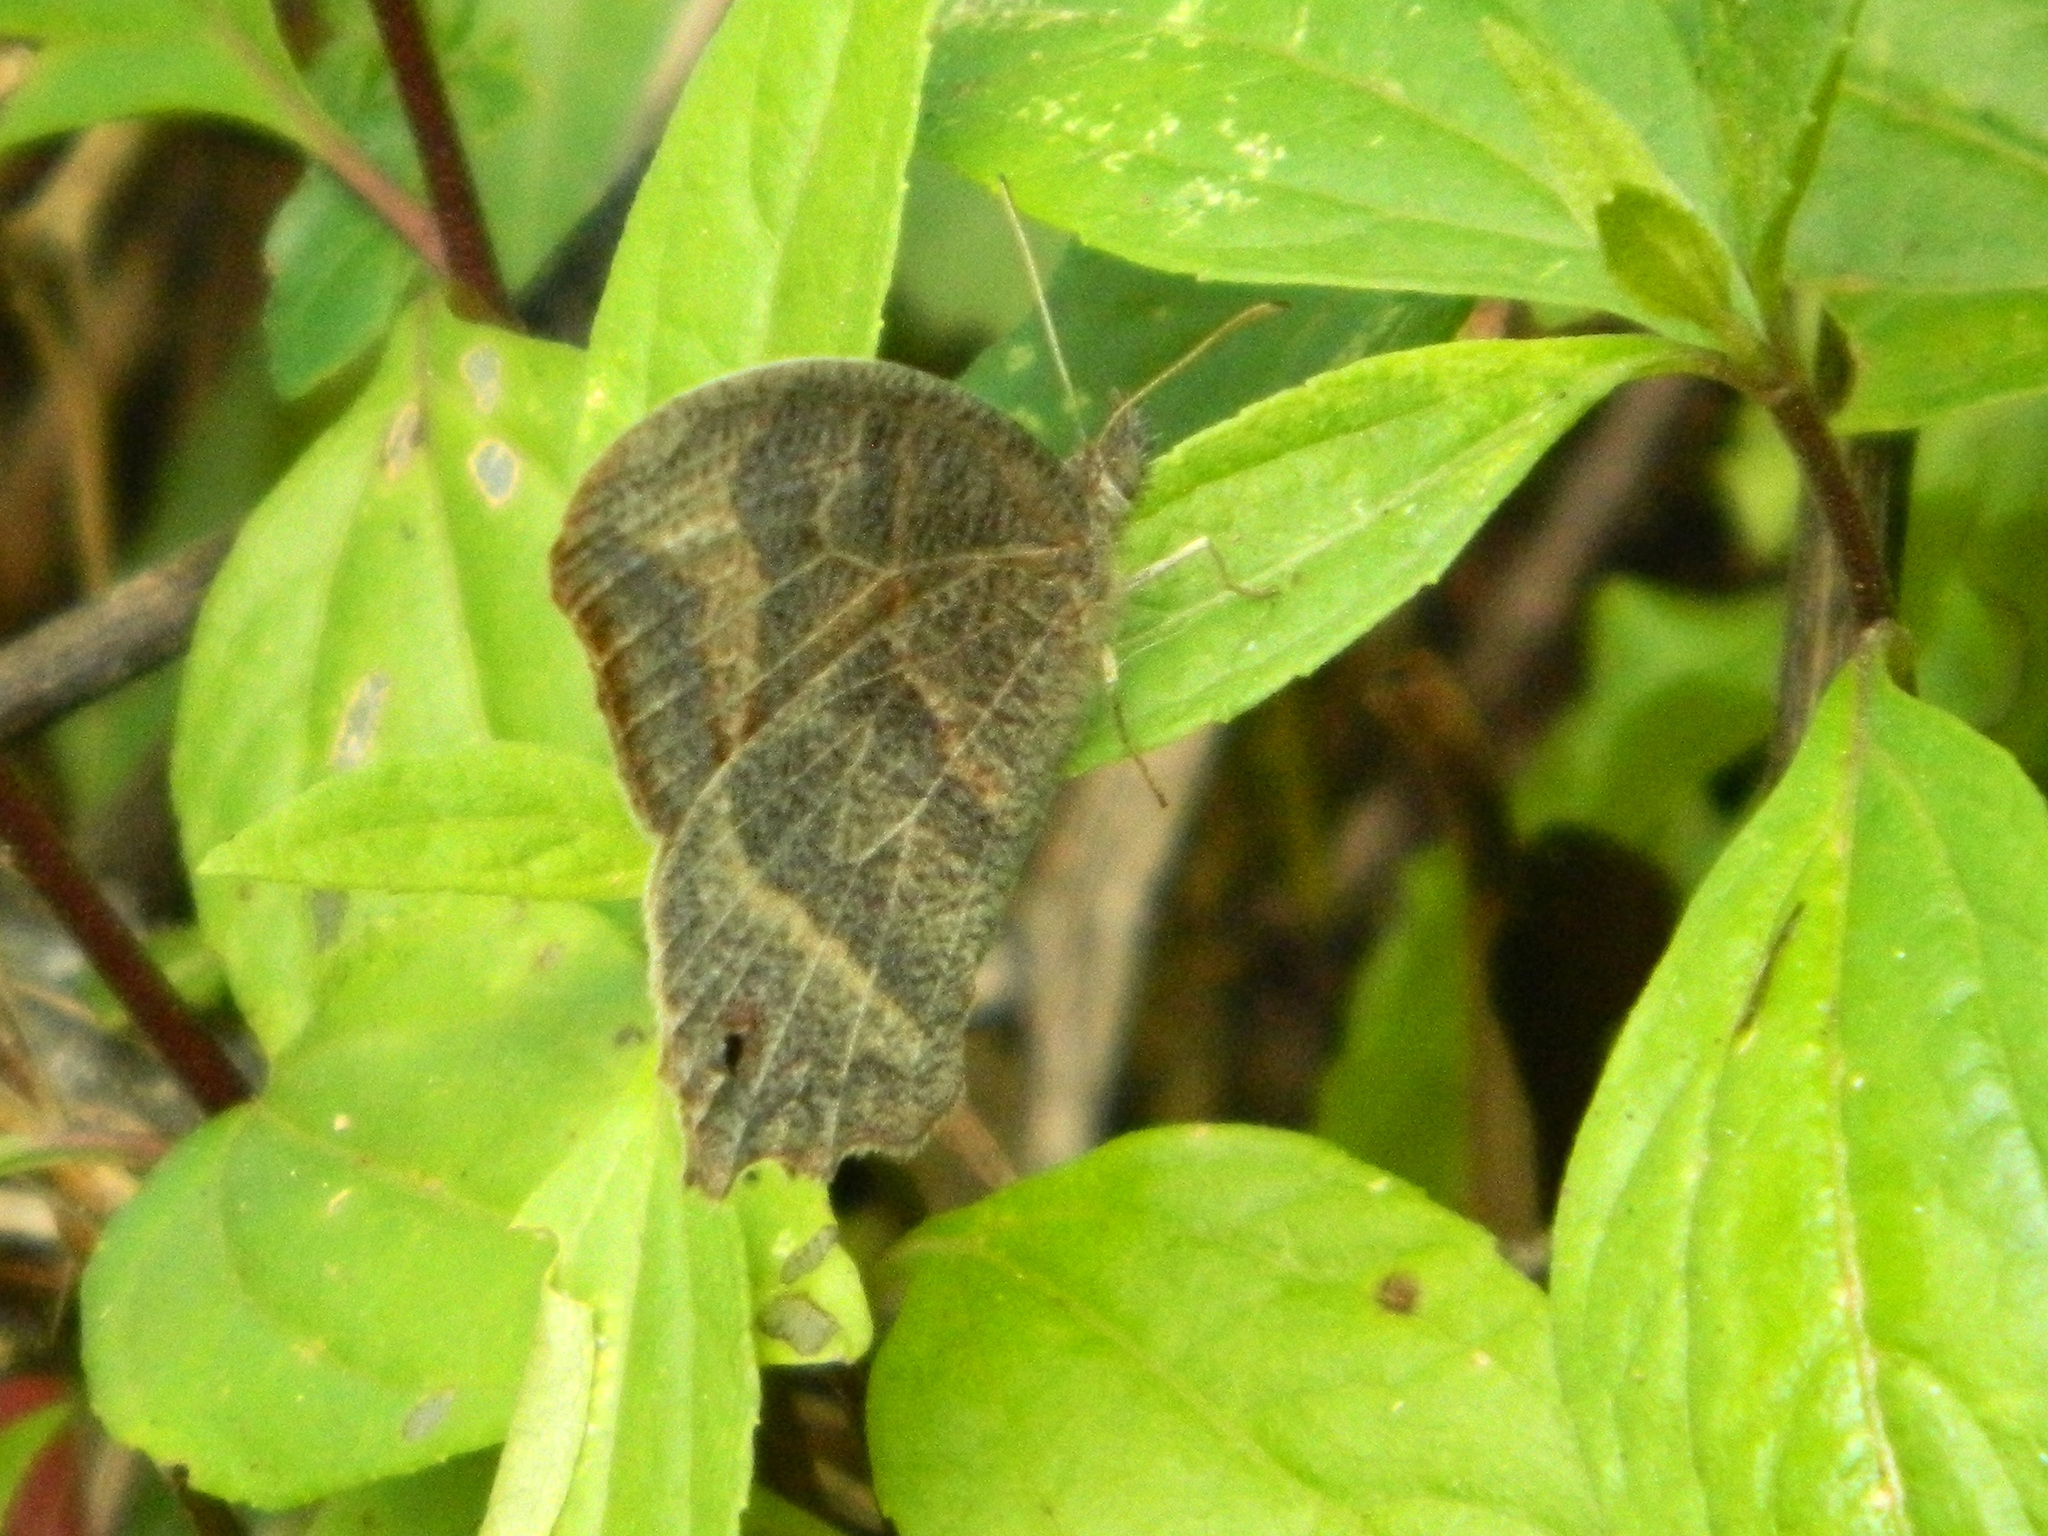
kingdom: Animalia
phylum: Arthropoda
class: Insecta
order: Lepidoptera
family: Nymphalidae
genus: Euptychia
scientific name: Euptychia Cyllopsis hedemanni
